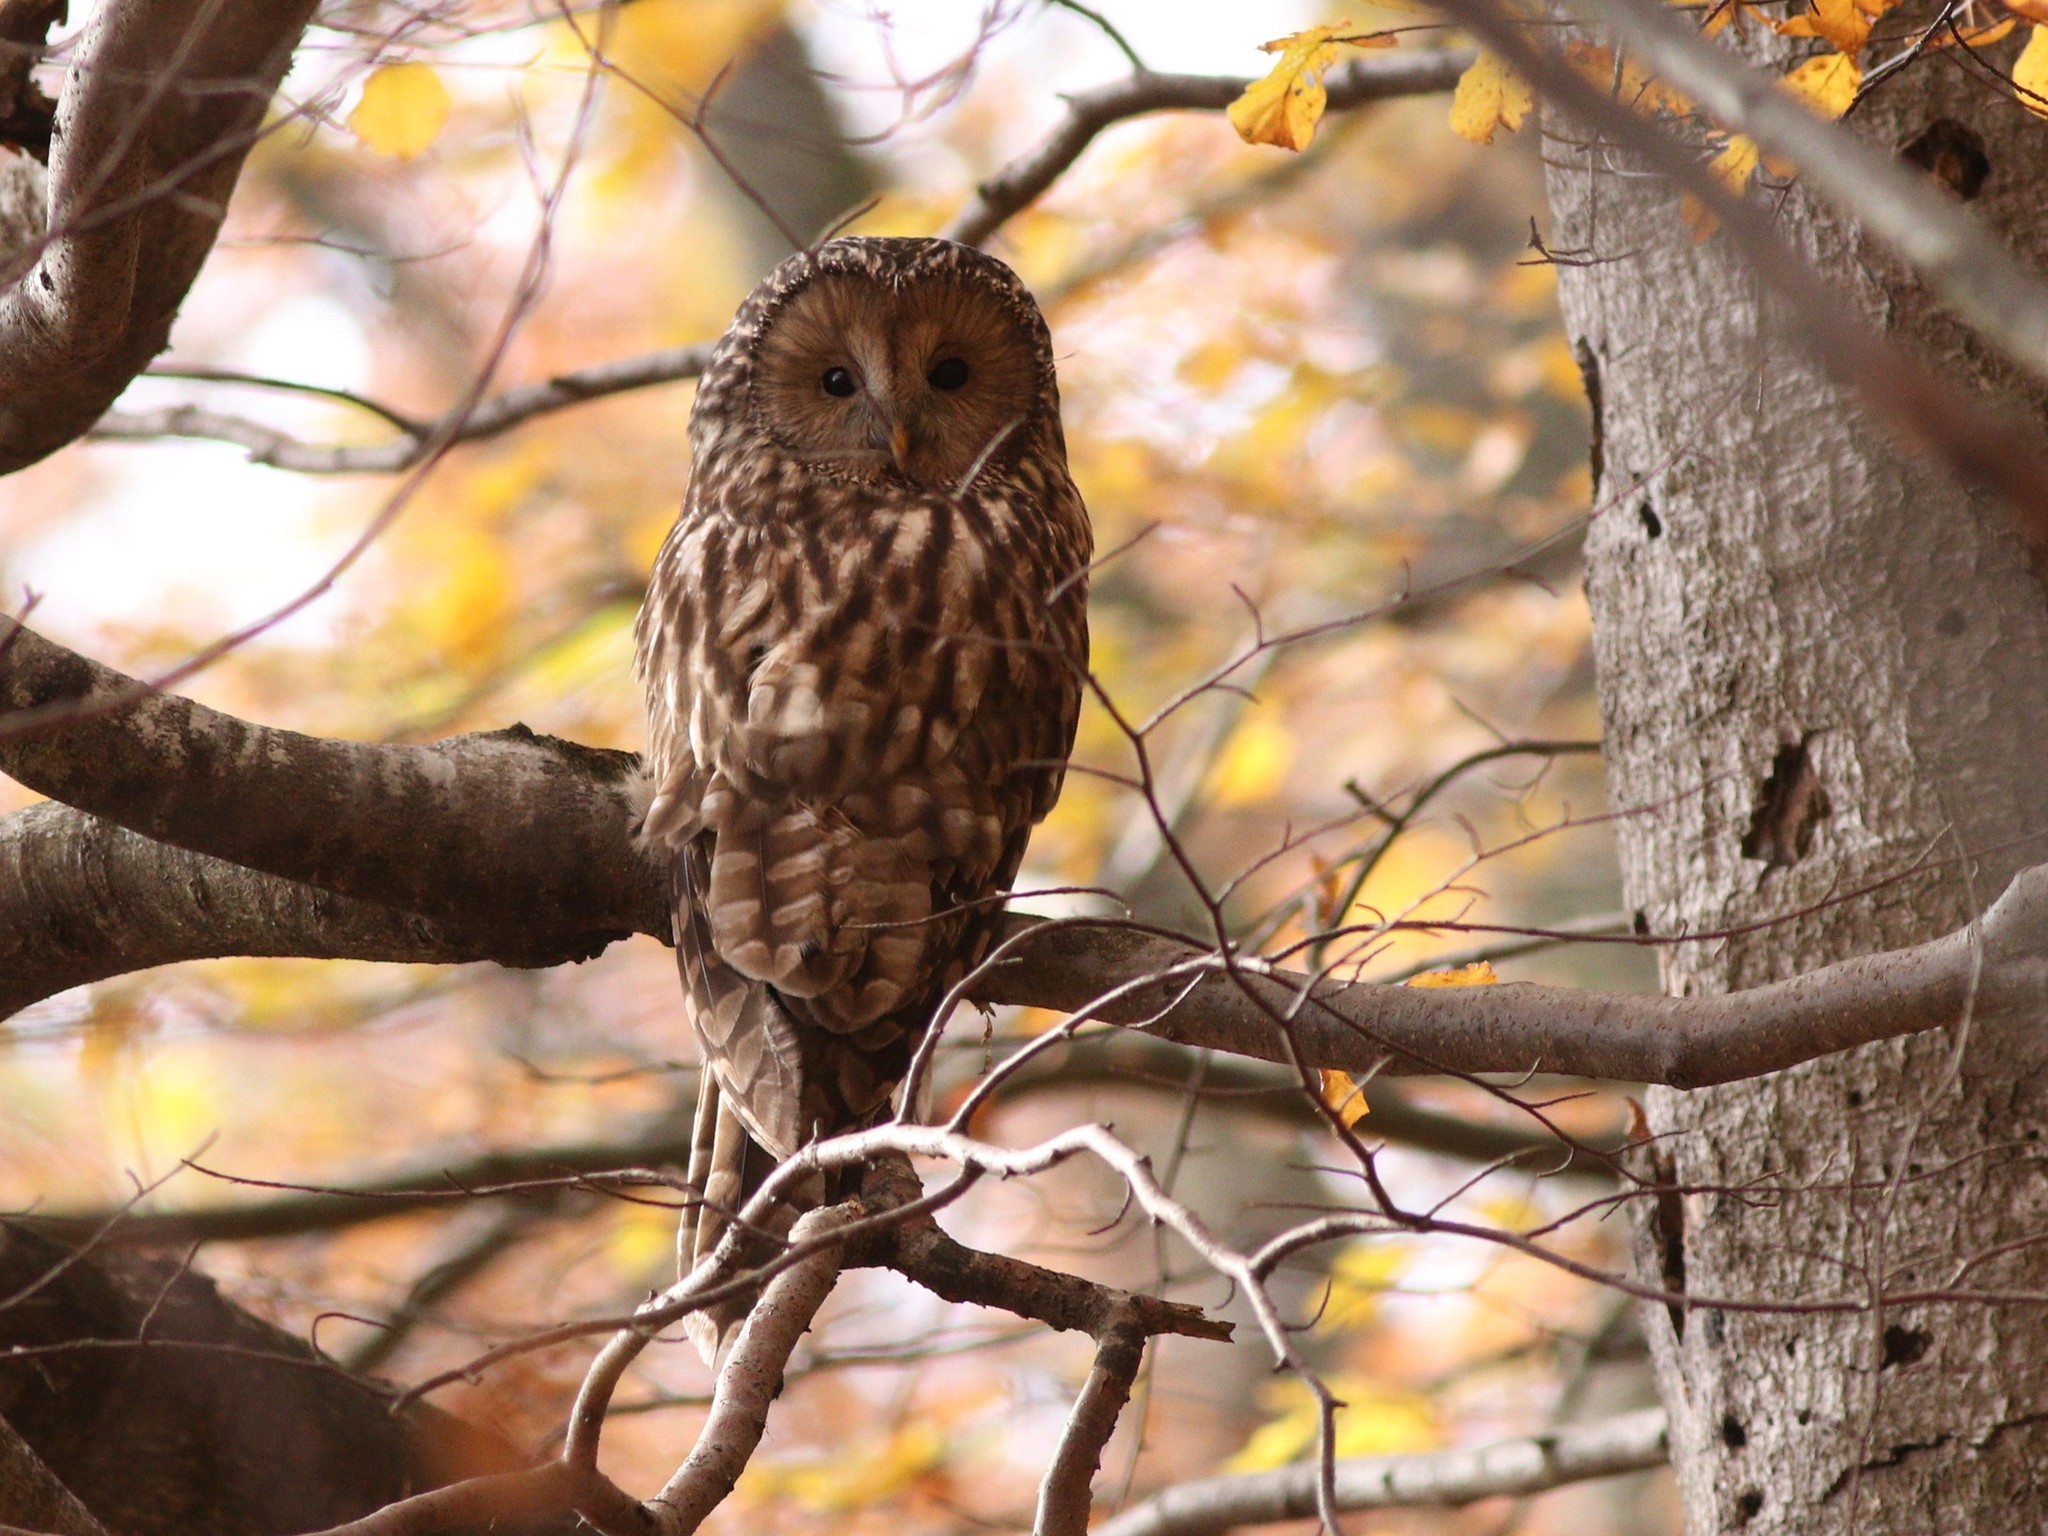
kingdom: Animalia
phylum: Chordata
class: Aves
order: Strigiformes
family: Strigidae
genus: Strix
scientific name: Strix uralensis
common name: Ural owl
